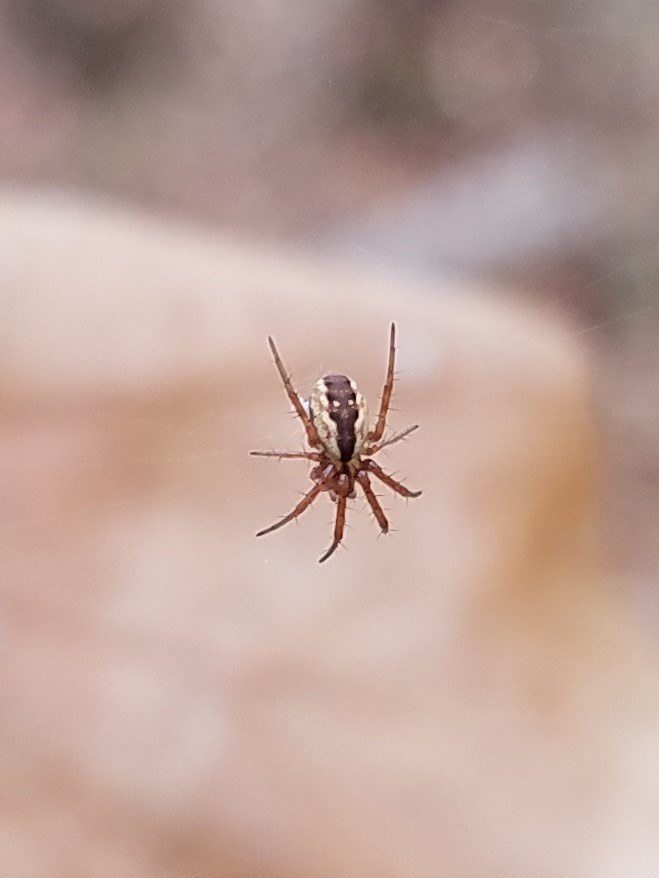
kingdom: Animalia
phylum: Arthropoda
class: Arachnida
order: Araneae
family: Araneidae
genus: Mangora
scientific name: Mangora placida
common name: Tuft-legged orbweaver
